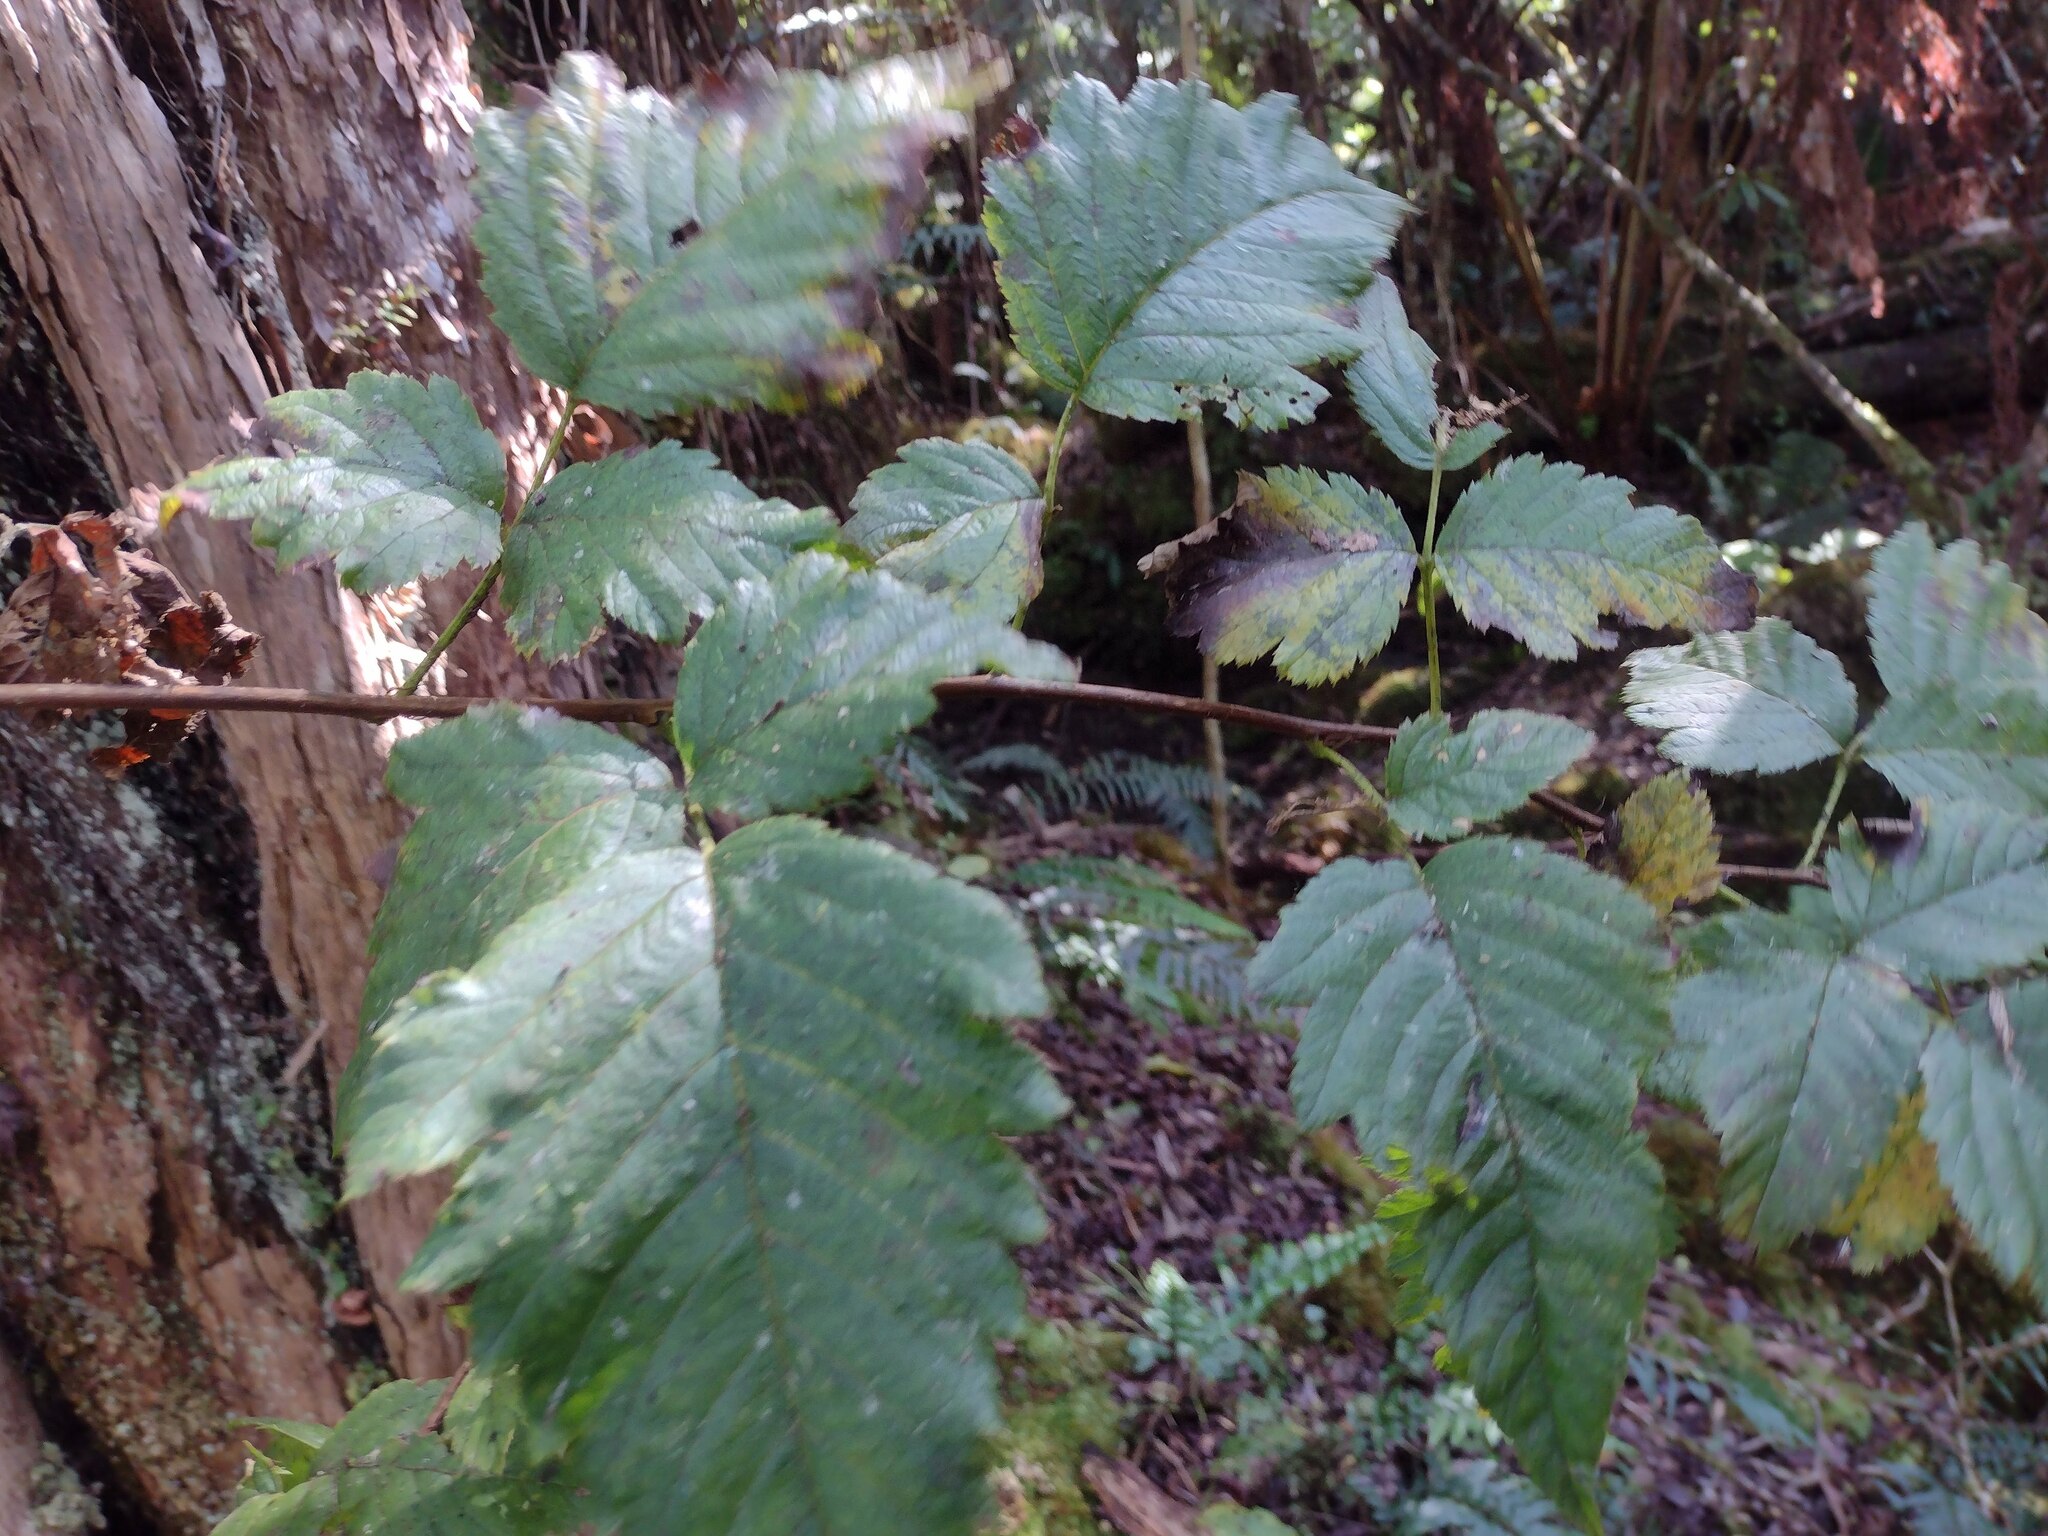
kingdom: Plantae
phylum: Tracheophyta
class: Magnoliopsida
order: Rosales
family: Rosaceae
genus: Rubus
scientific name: Rubus hawaiensis
